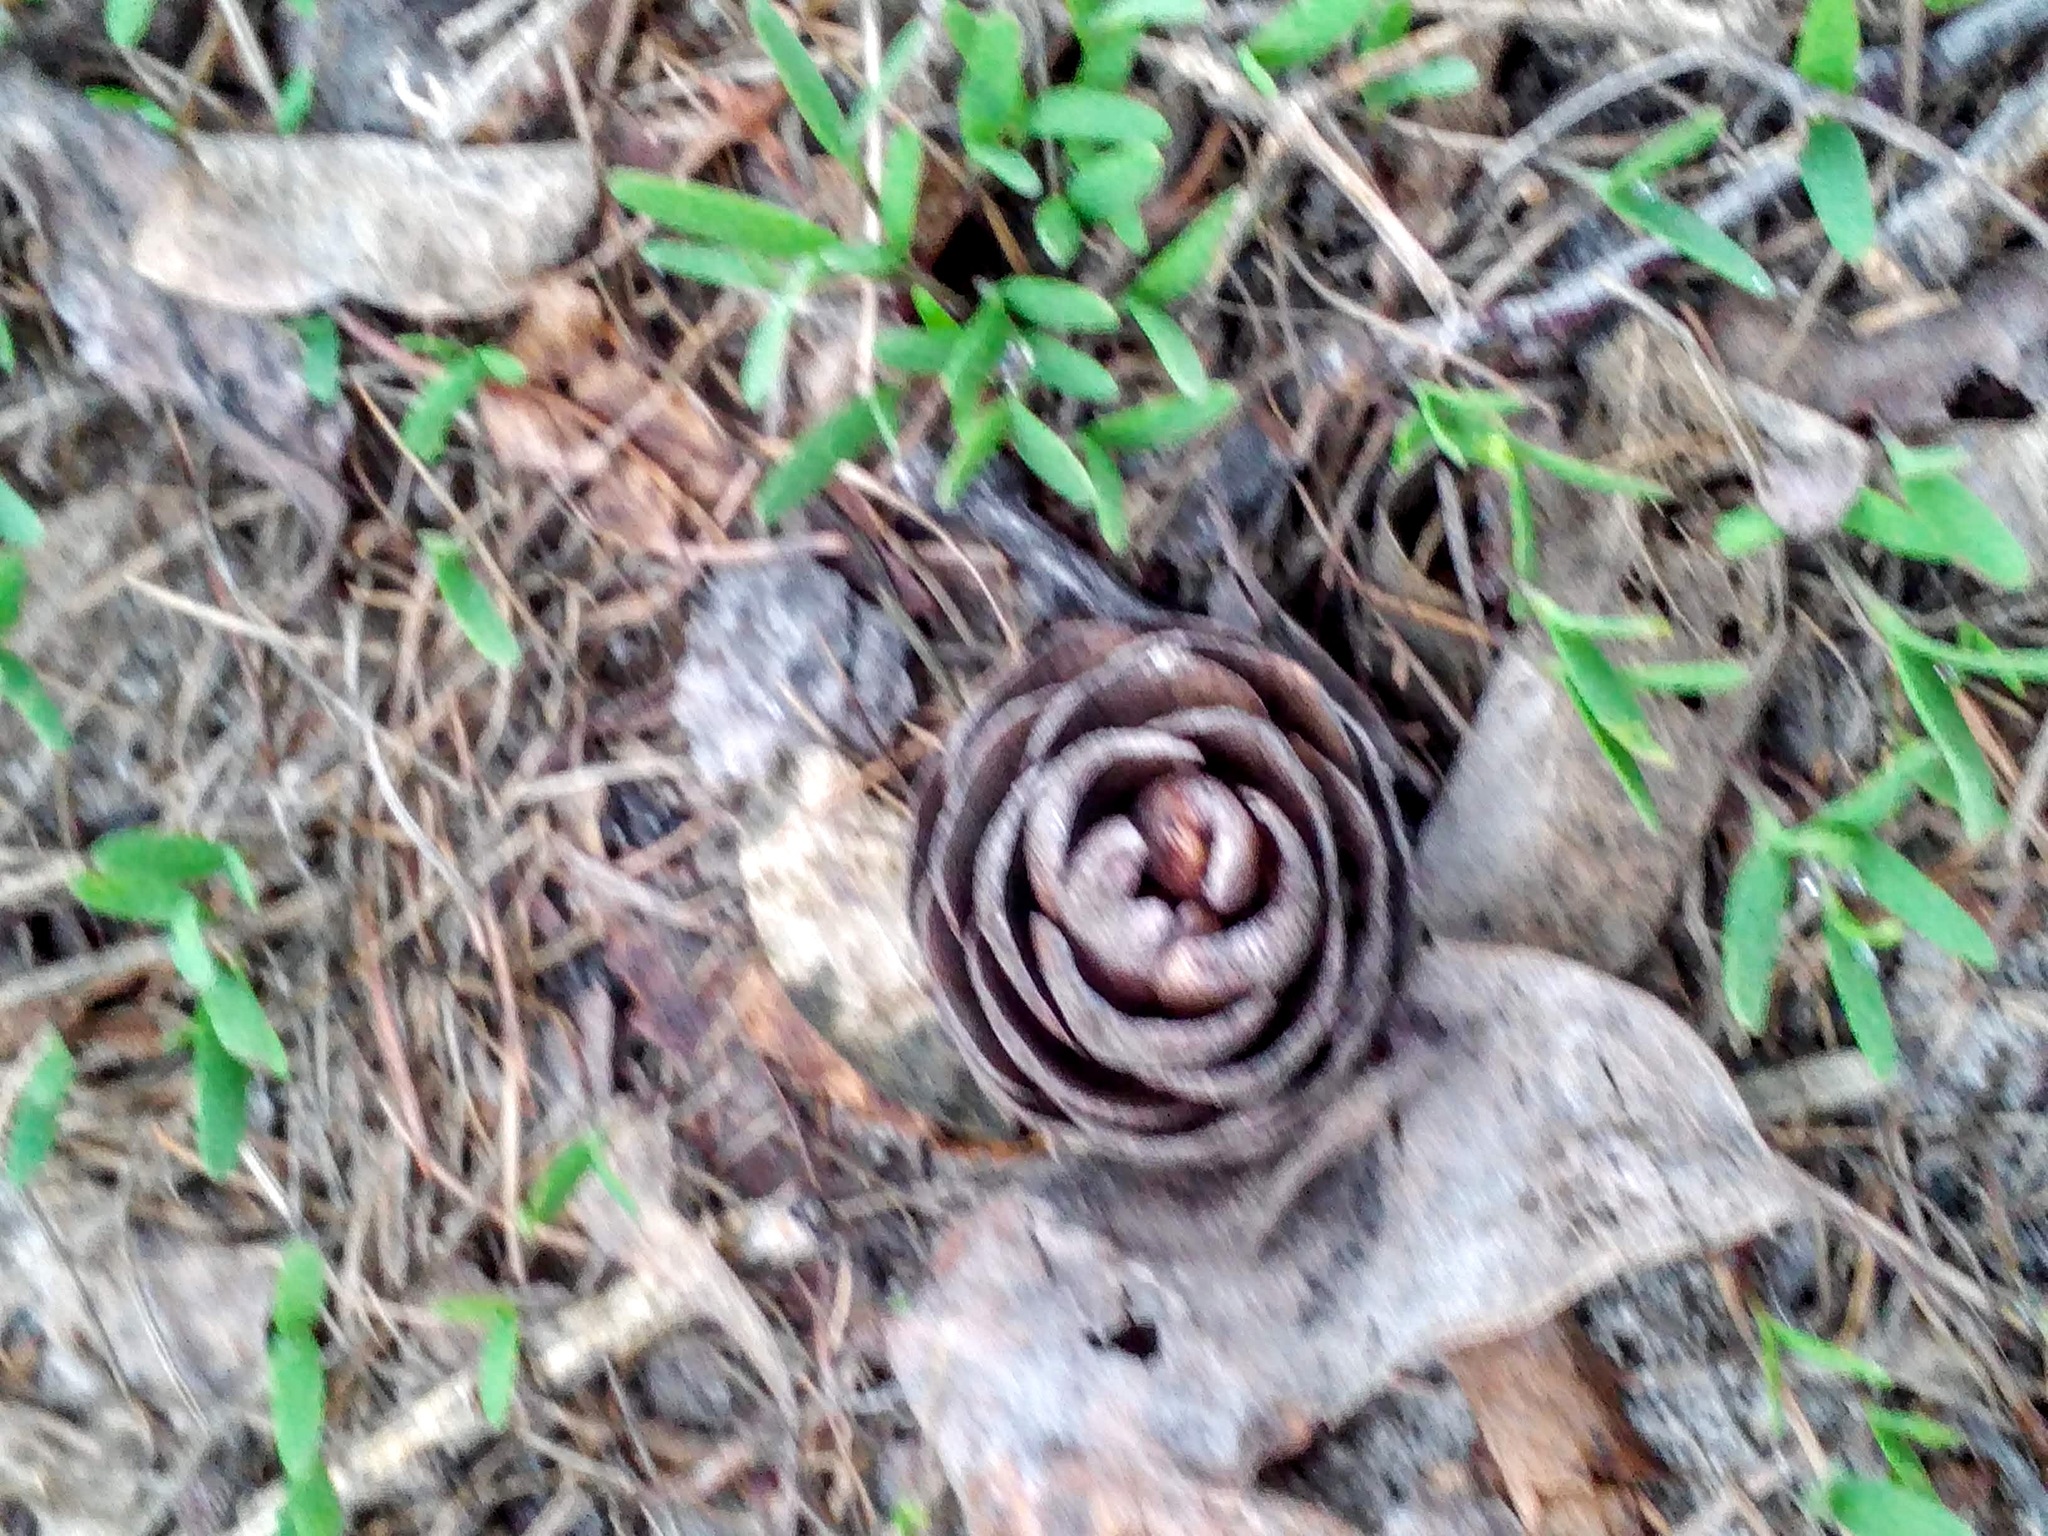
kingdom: Plantae
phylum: Tracheophyta
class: Pinopsida
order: Pinales
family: Pinaceae
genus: Larix
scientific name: Larix sibirica
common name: Siberian larch
